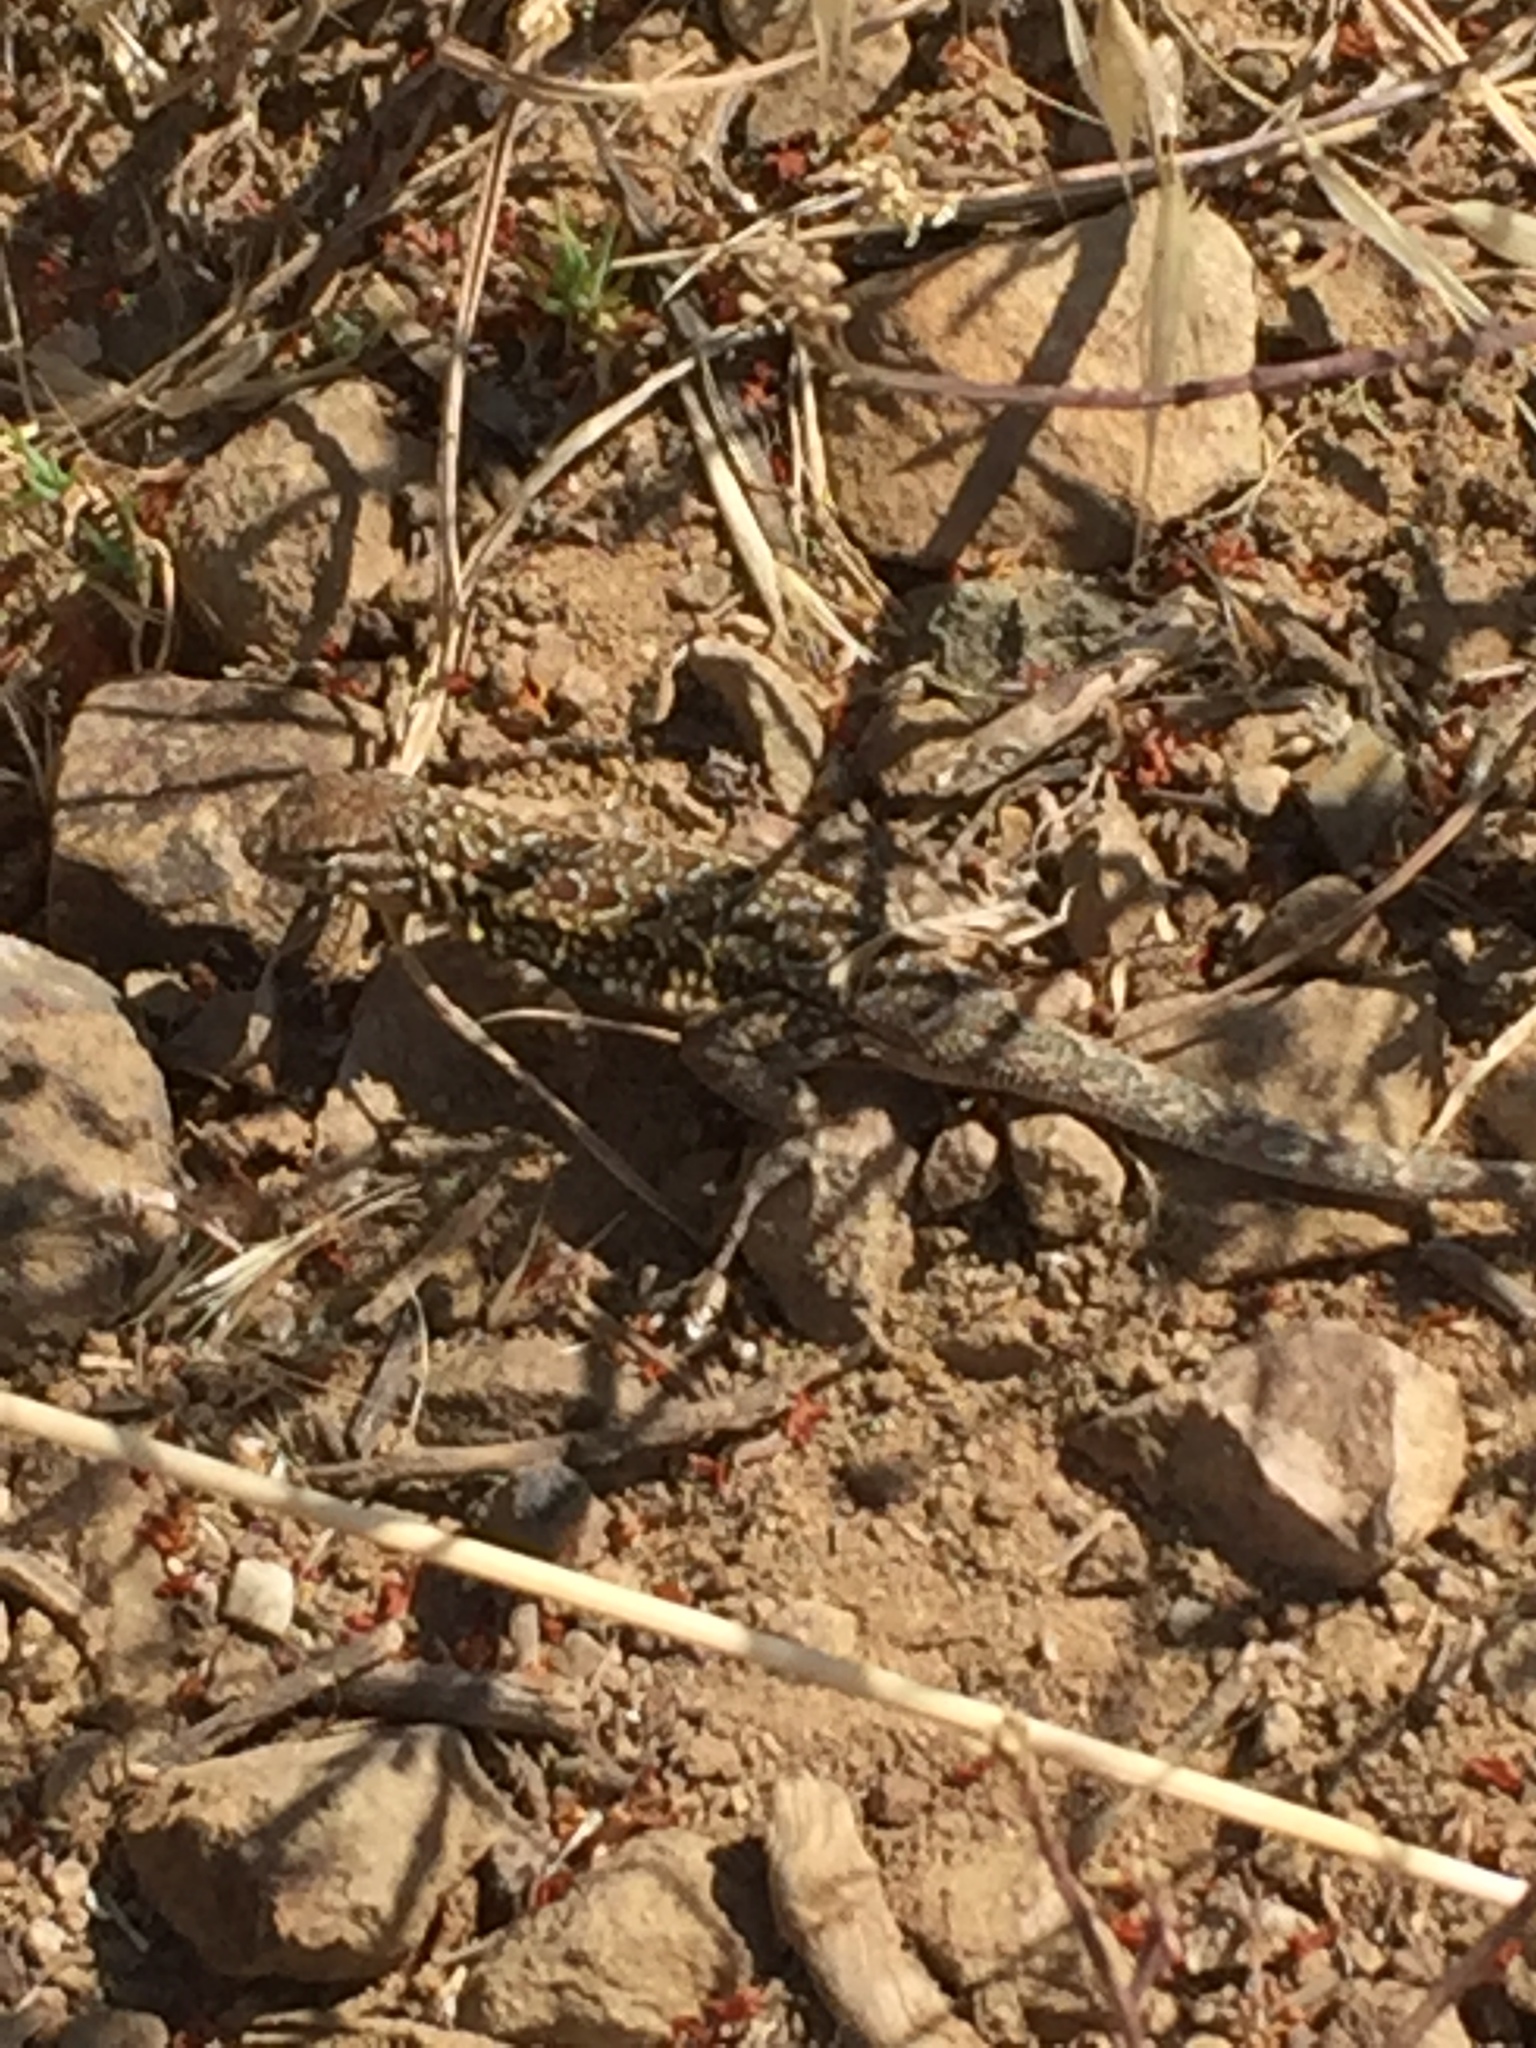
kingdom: Animalia
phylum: Chordata
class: Squamata
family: Phrynosomatidae
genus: Uta
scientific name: Uta stansburiana
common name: Side-blotched lizard
